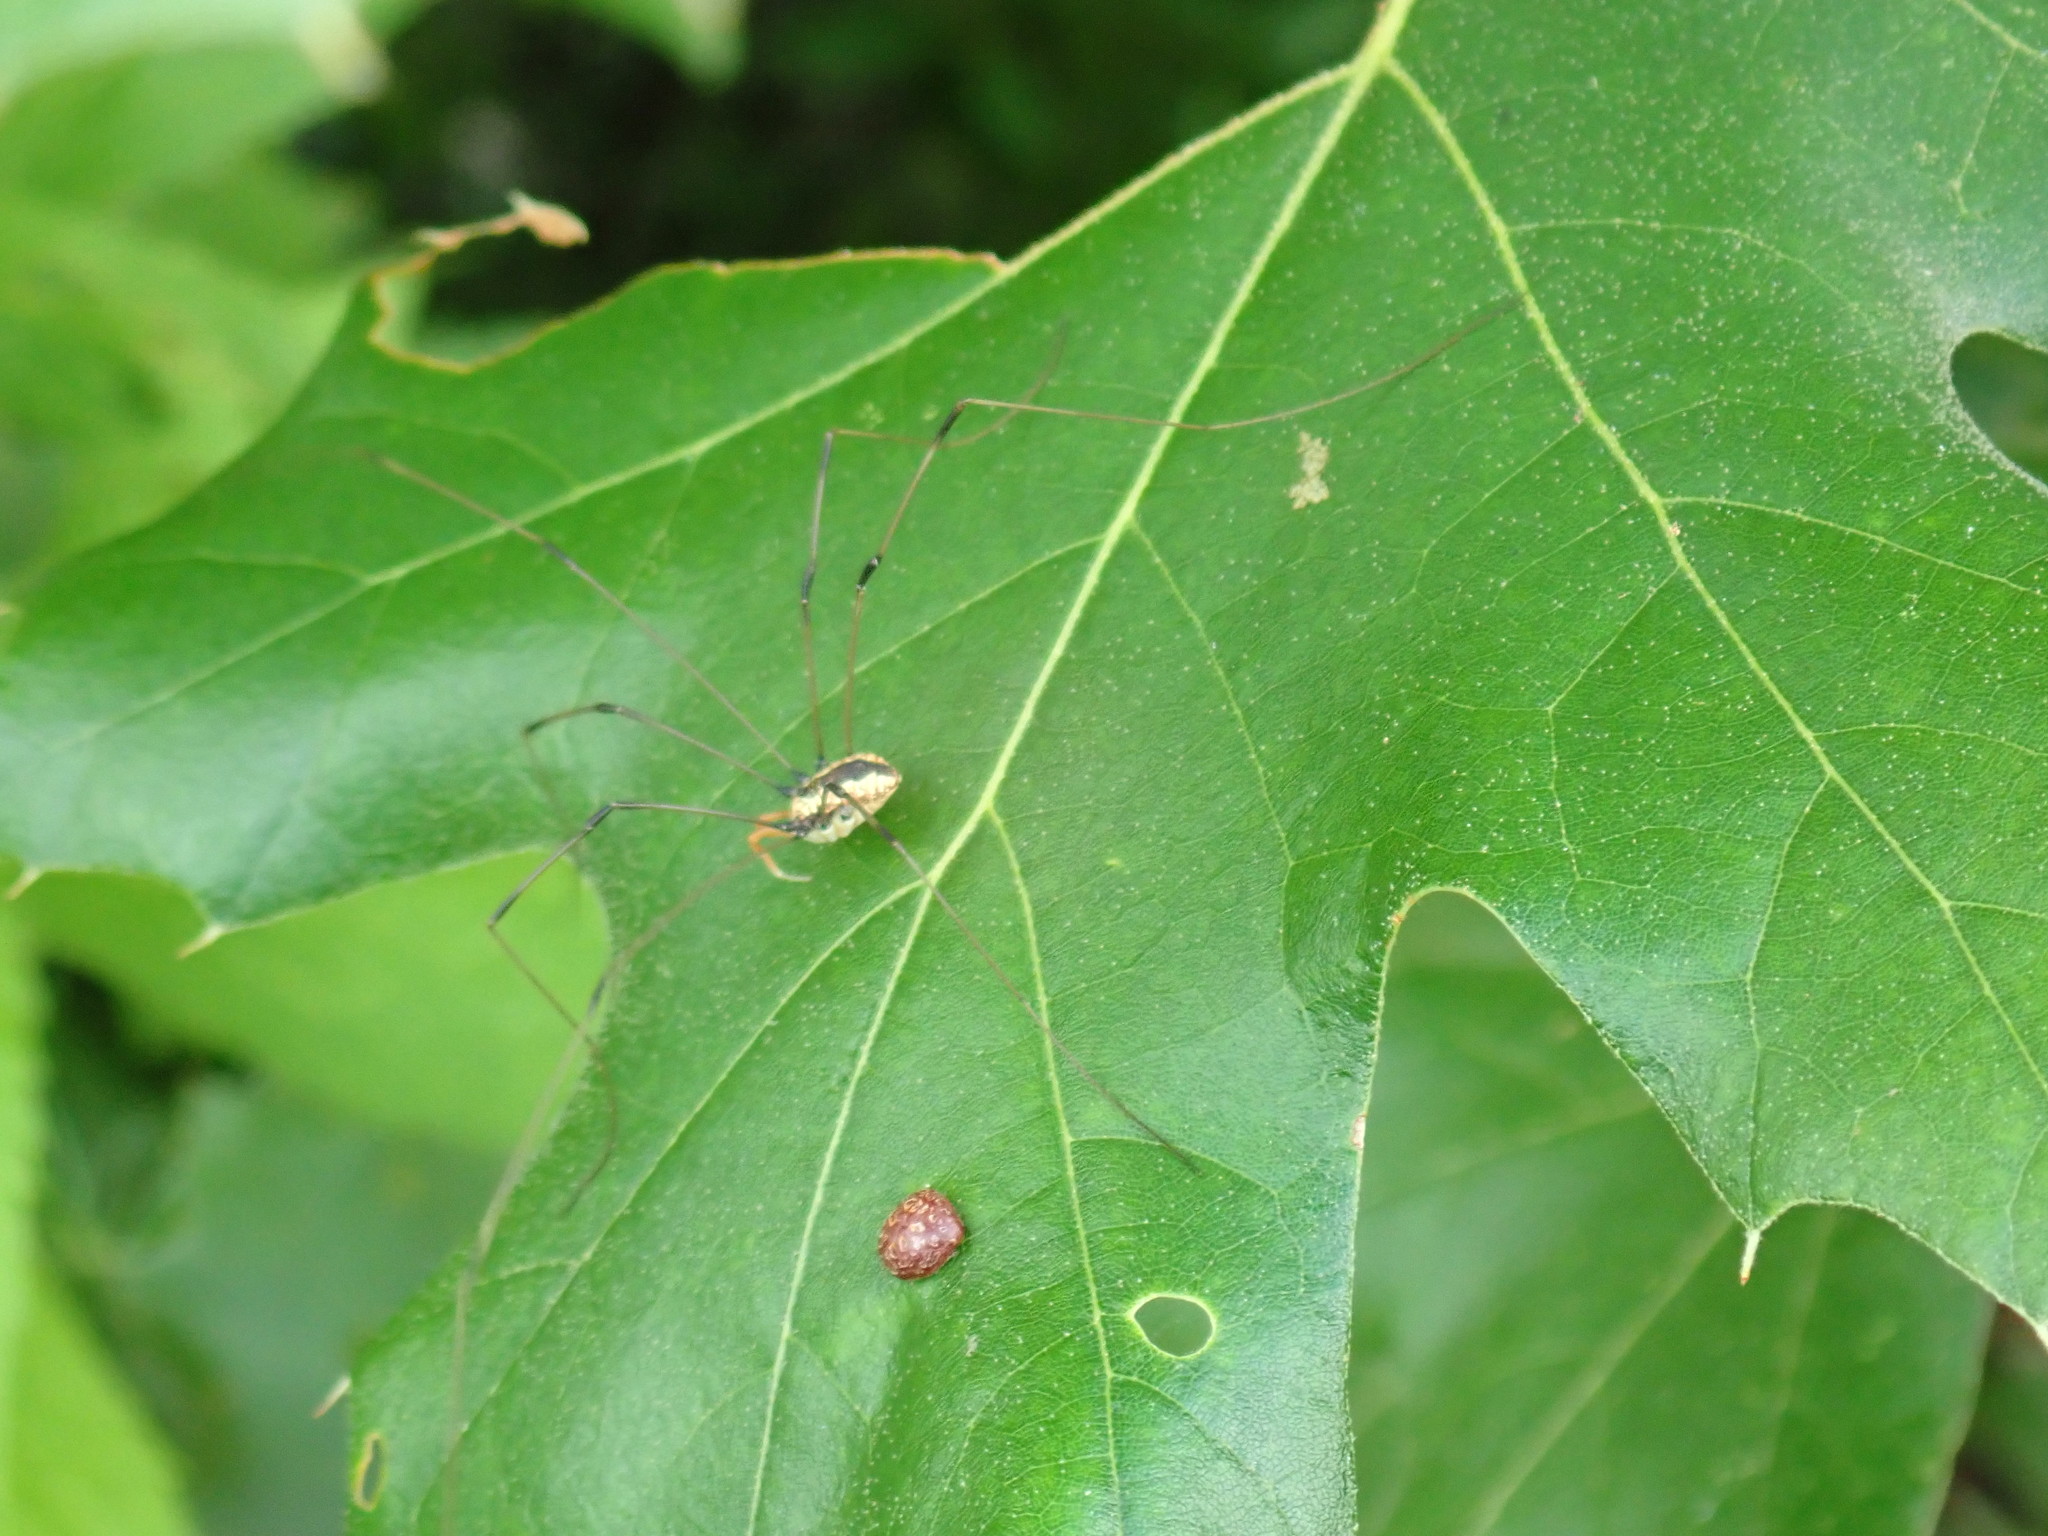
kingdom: Animalia
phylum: Arthropoda
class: Arachnida
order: Opiliones
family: Sclerosomatidae
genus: Leiobunum
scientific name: Leiobunum vittatum
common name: Eastern harvestman
